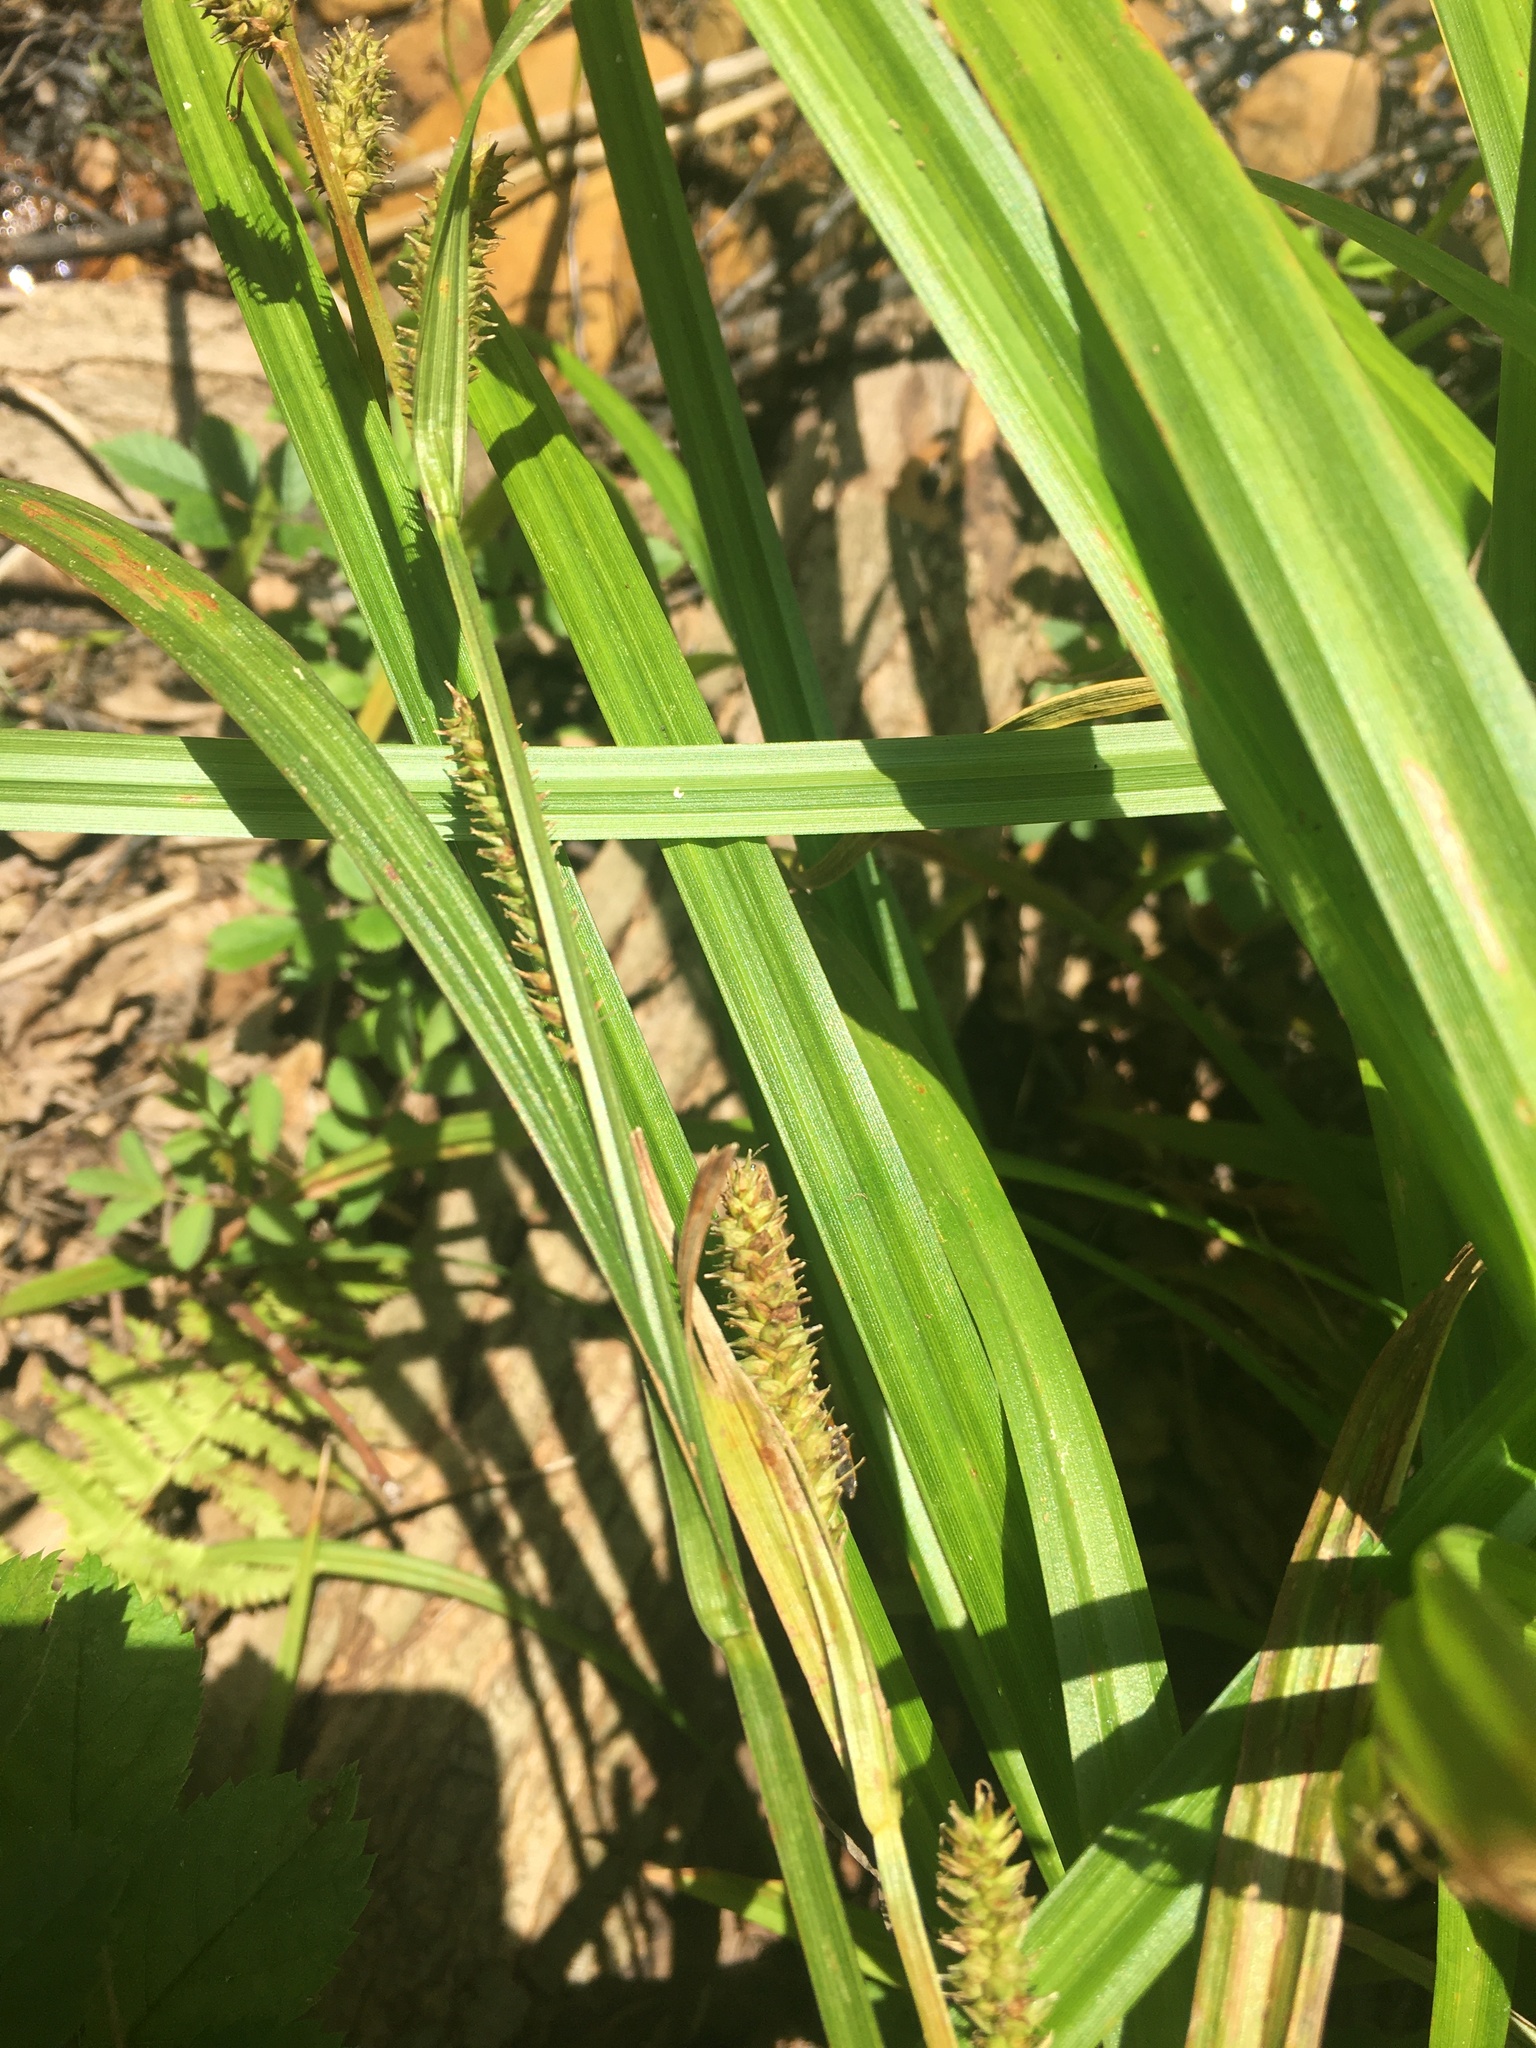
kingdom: Plantae
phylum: Tracheophyta
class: Liliopsida
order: Poales
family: Cyperaceae
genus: Carex
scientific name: Carex scabrata
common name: Eastern rough sedge
